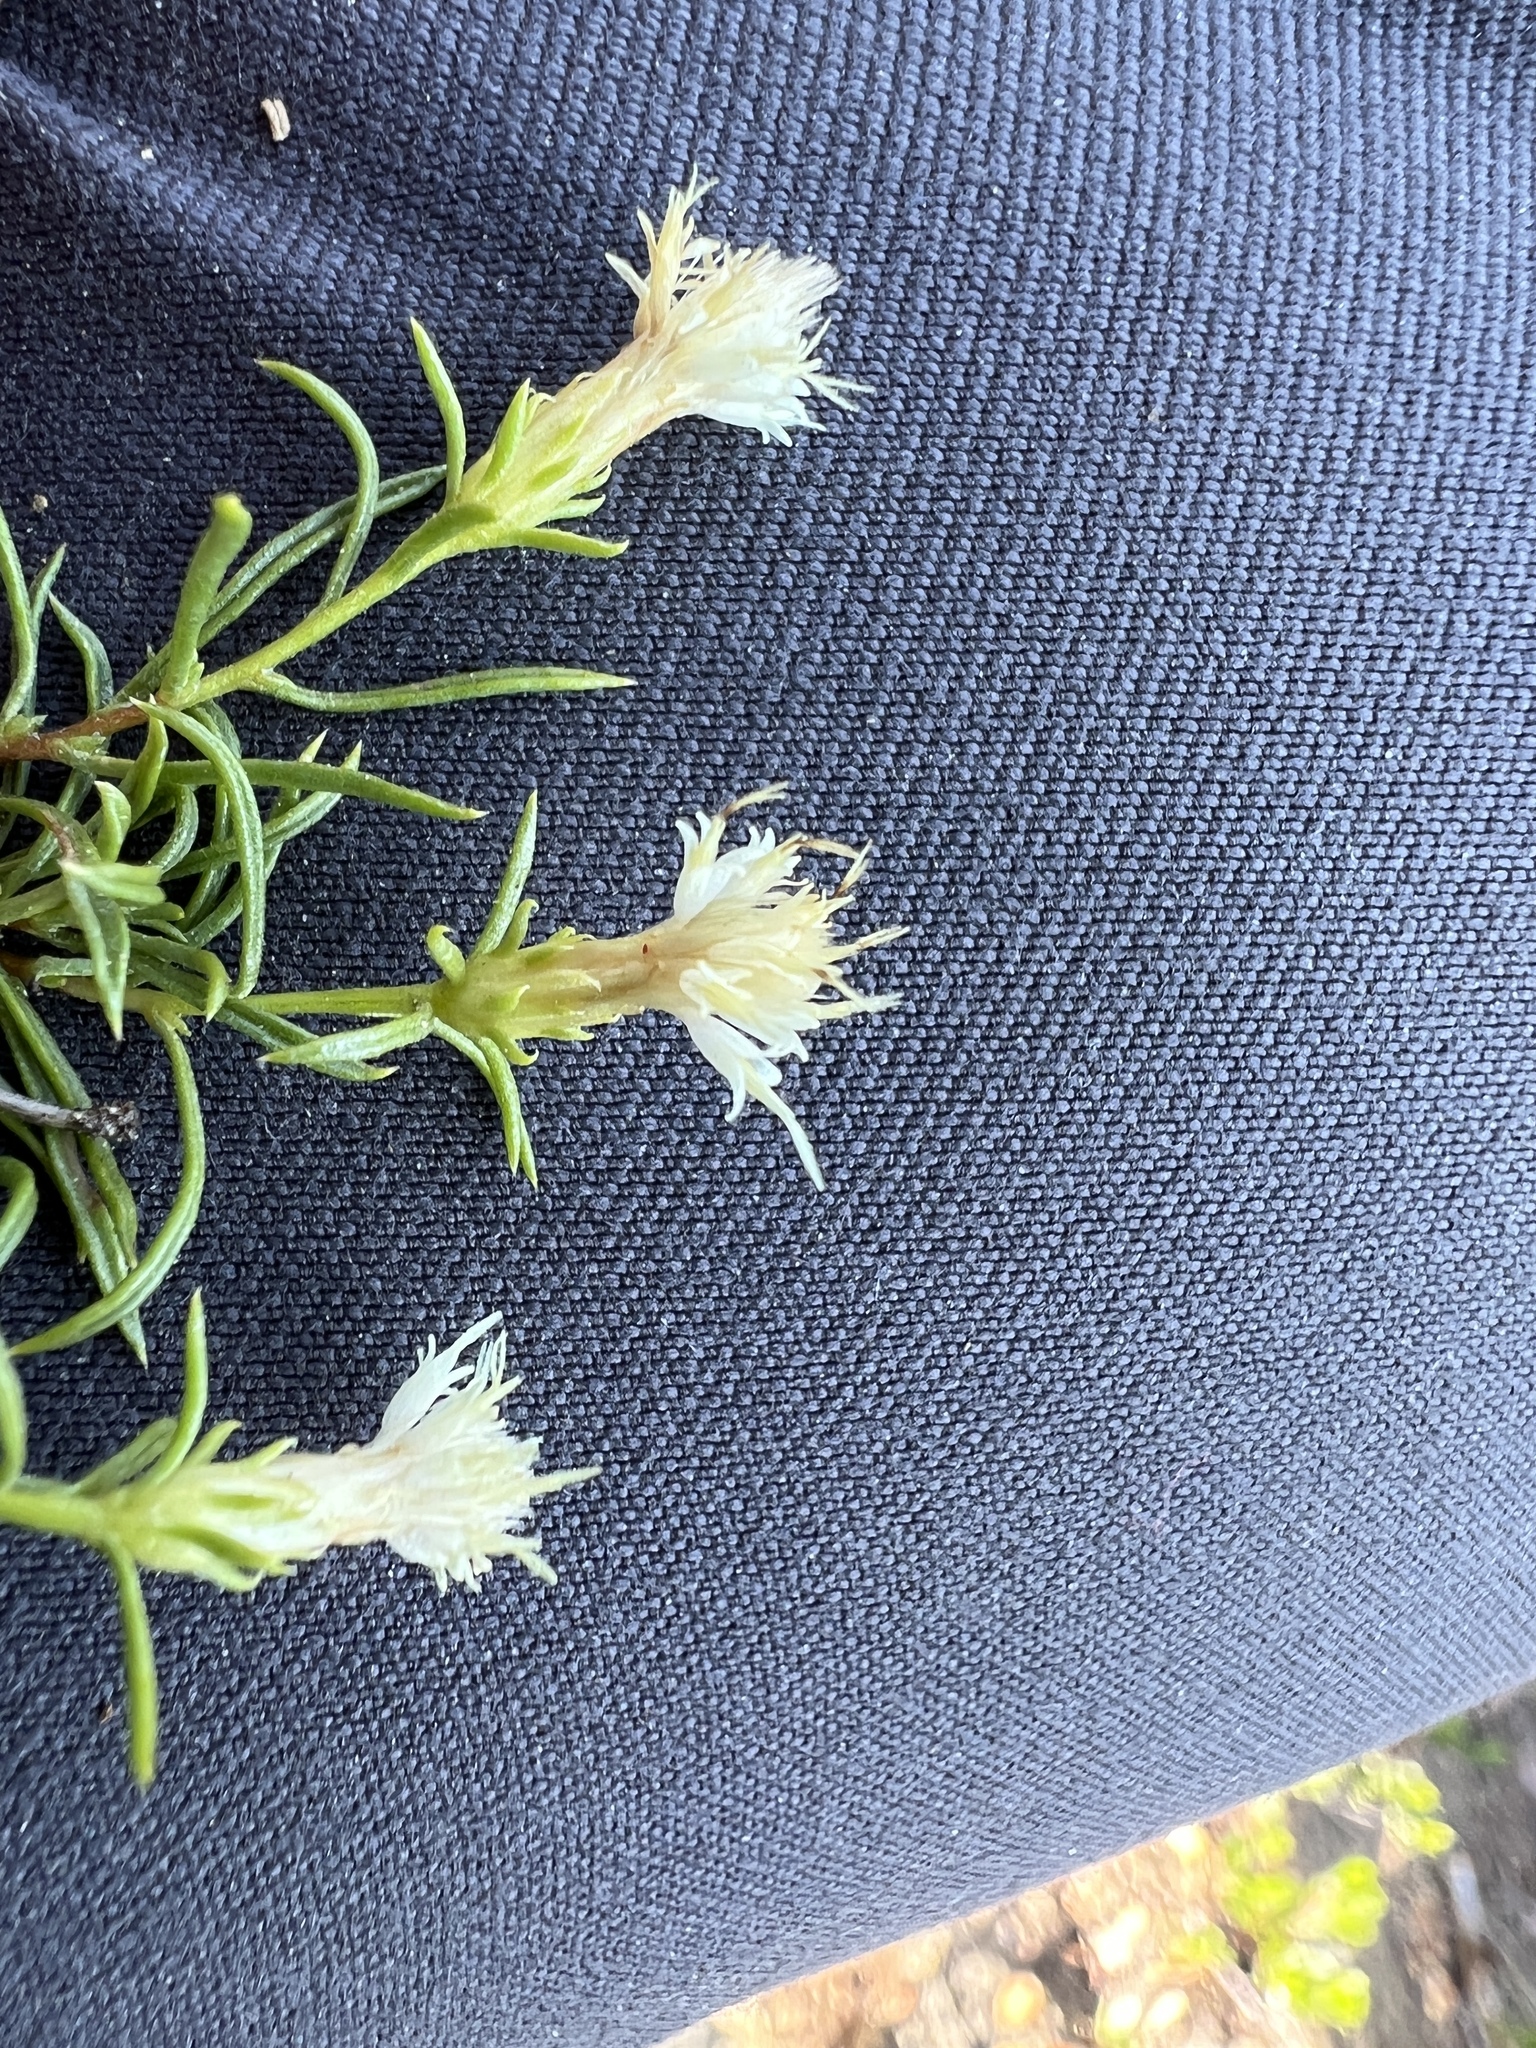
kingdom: Plantae
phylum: Tracheophyta
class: Magnoliopsida
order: Asterales
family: Asteraceae
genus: Ericameria
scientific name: Ericameria resinosa
